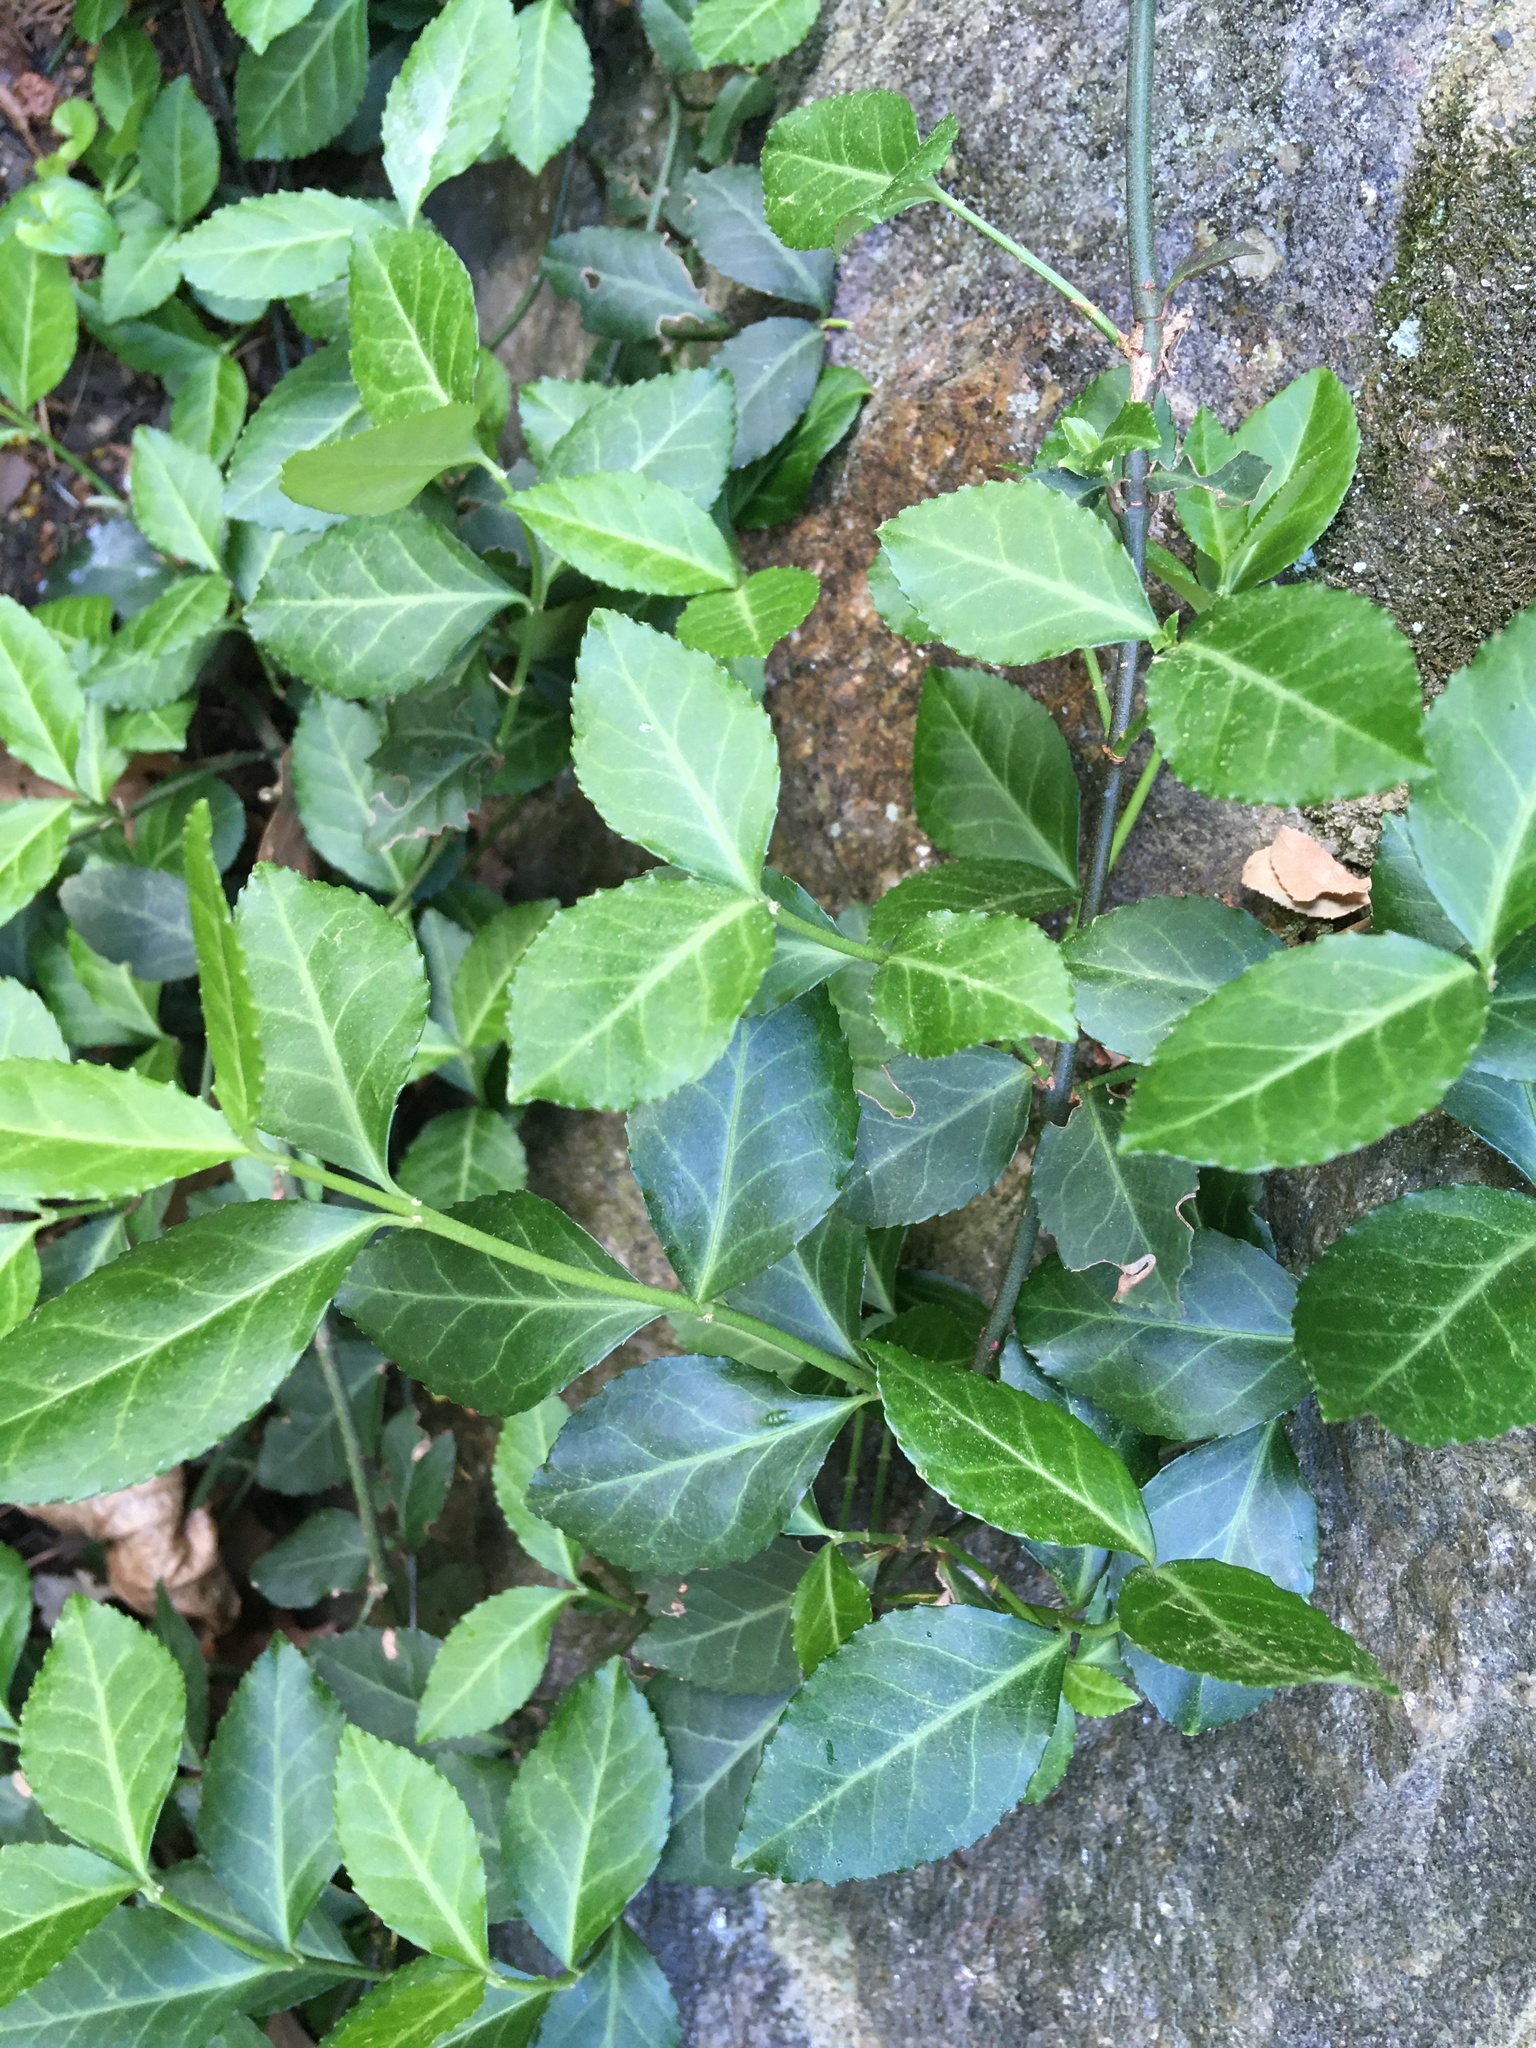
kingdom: Plantae
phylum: Tracheophyta
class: Magnoliopsida
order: Celastrales
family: Celastraceae
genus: Euonymus
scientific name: Euonymus fortunei
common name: Climbing euonymus
